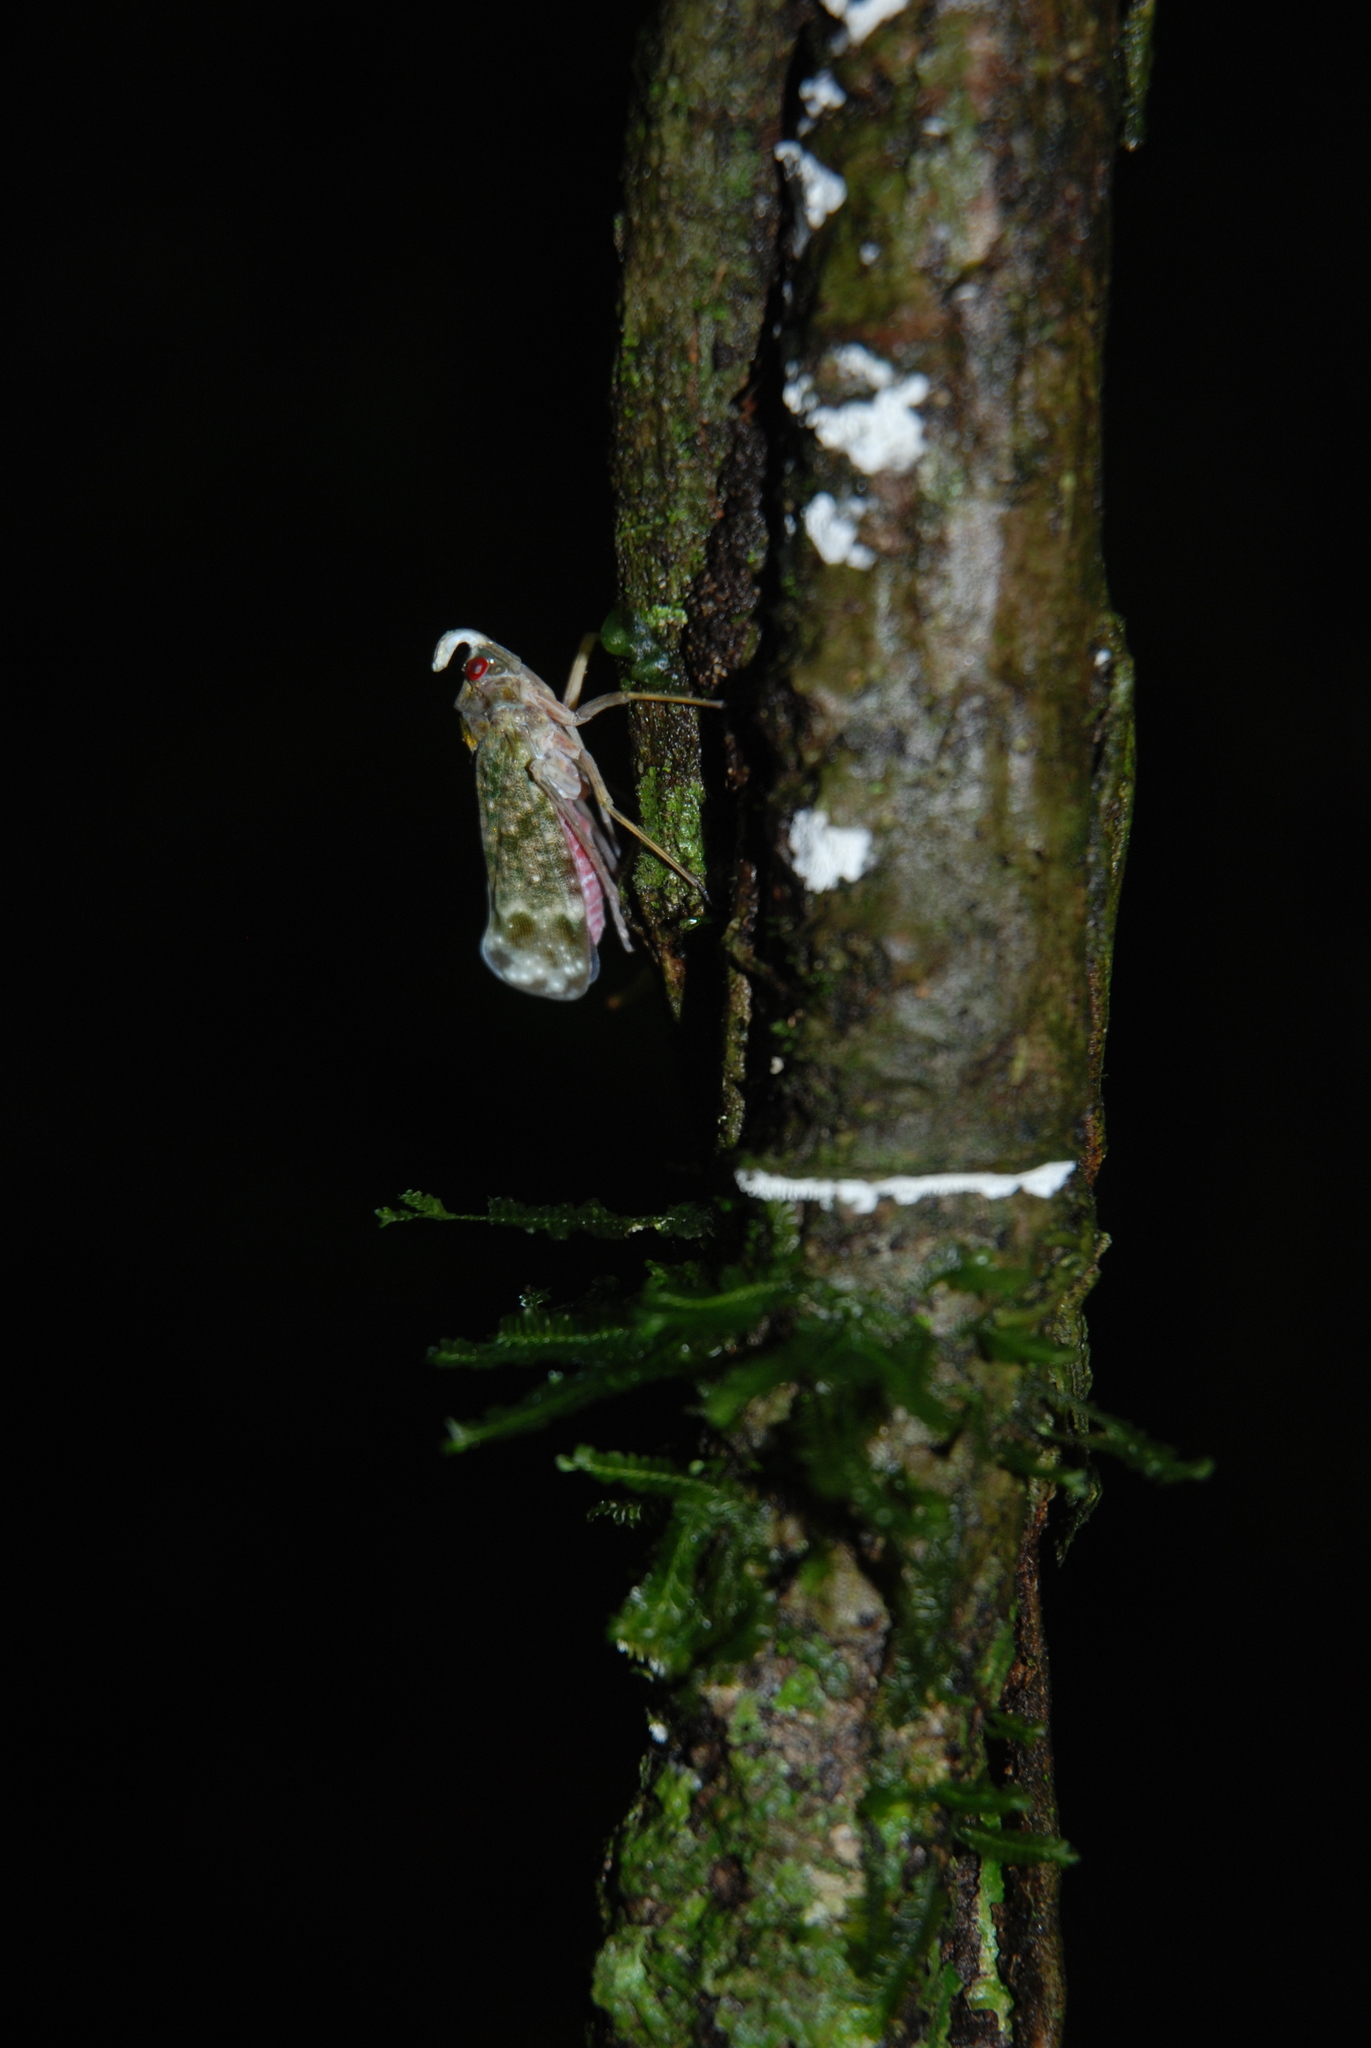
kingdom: Animalia
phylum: Arthropoda
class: Insecta
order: Hemiptera
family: Fulgoridae
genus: Enchophora
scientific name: Enchophora sanguinea
